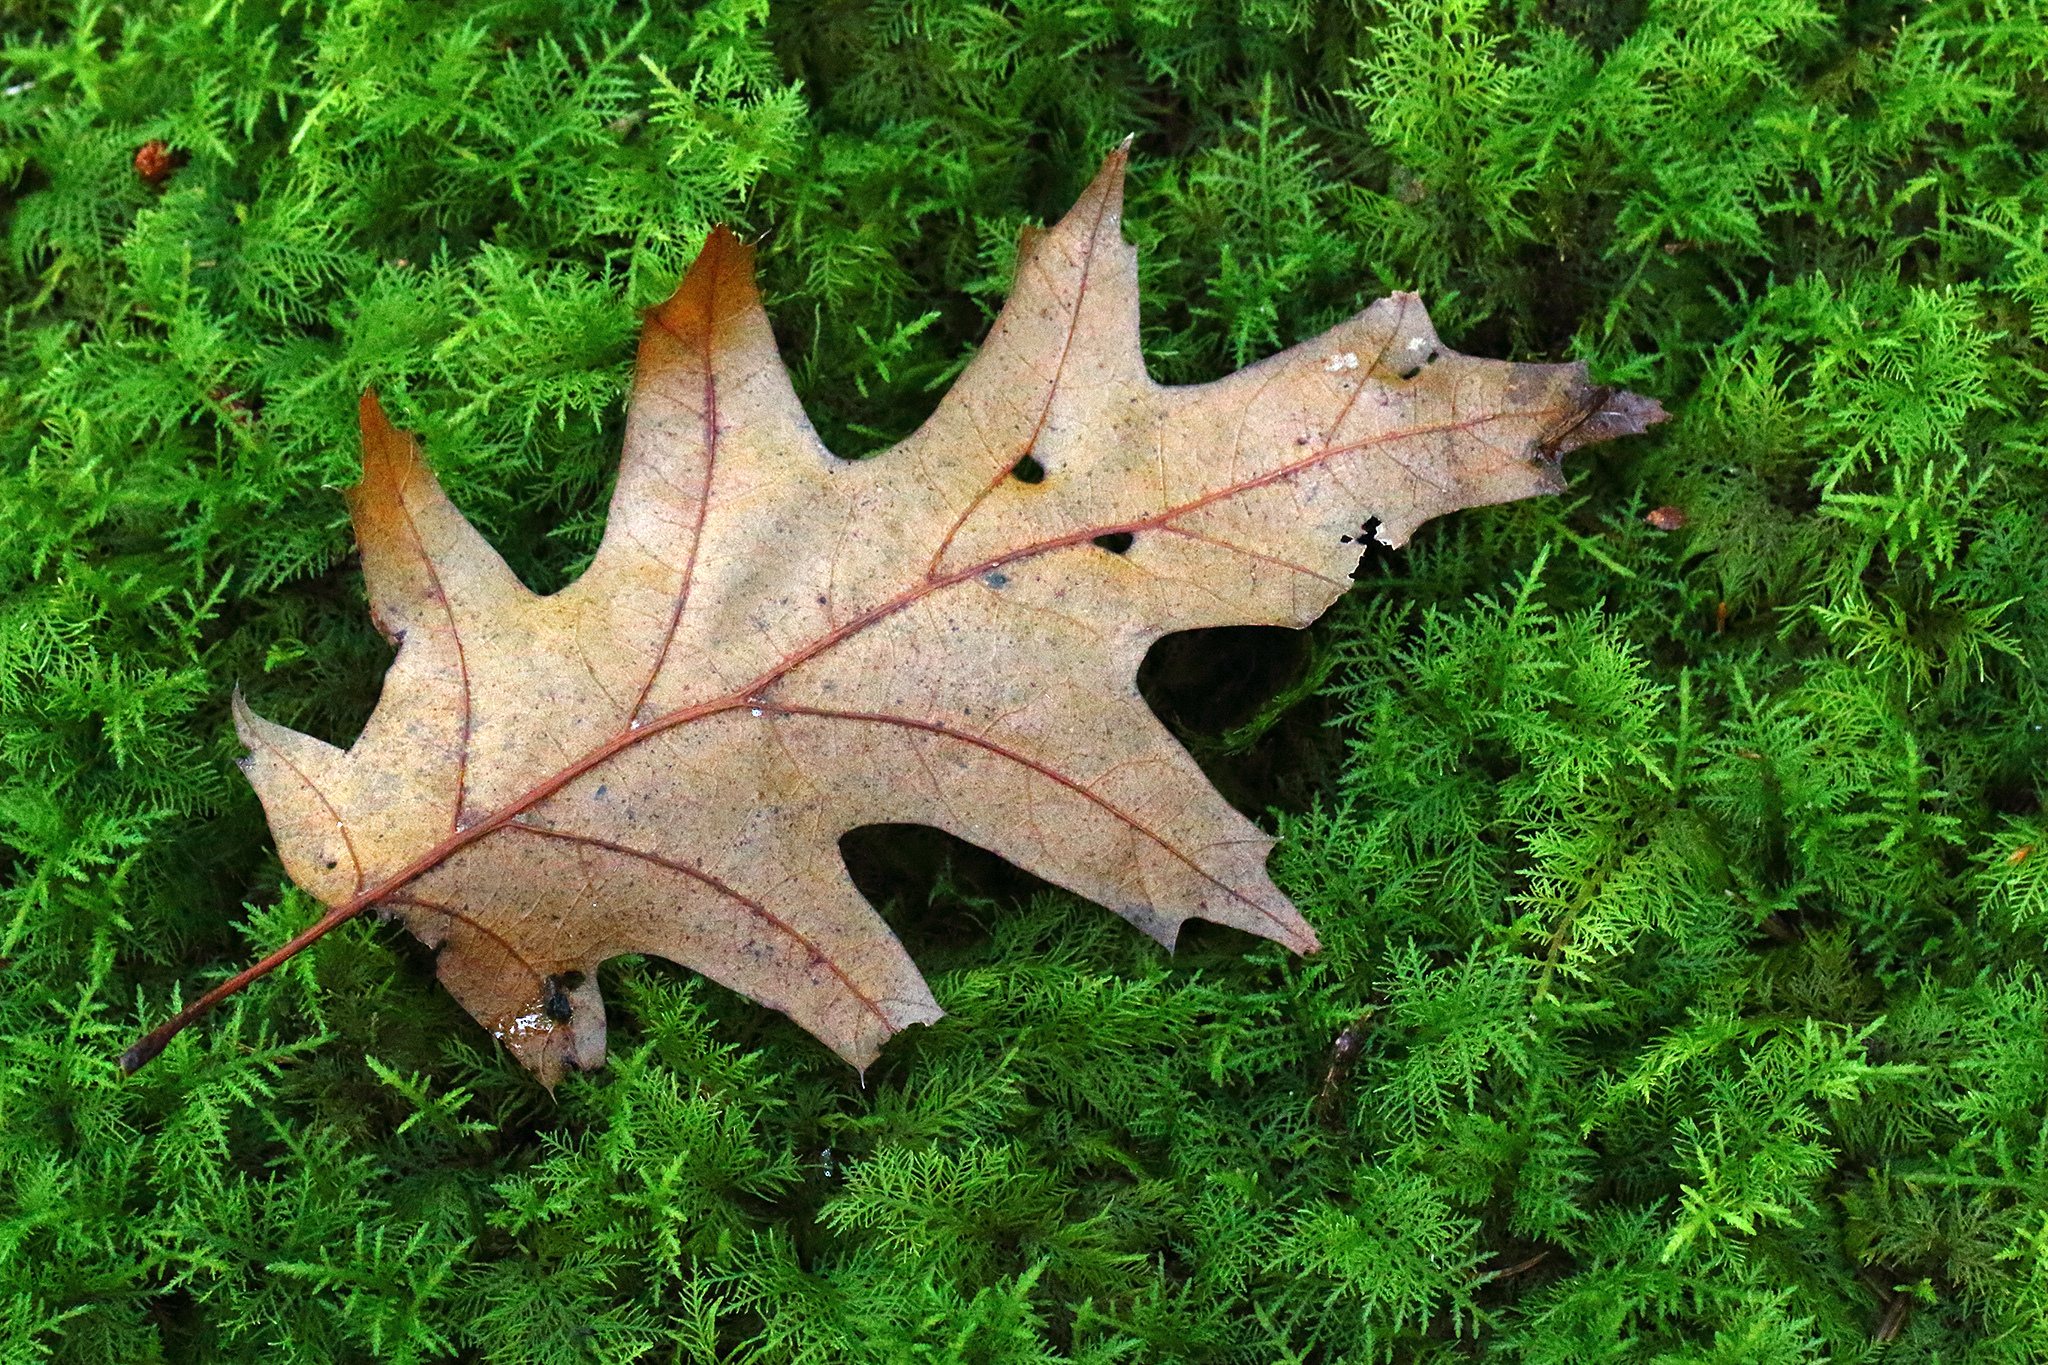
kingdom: Plantae
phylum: Tracheophyta
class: Magnoliopsida
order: Fagales
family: Fagaceae
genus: Quercus
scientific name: Quercus rubra
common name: Red oak
